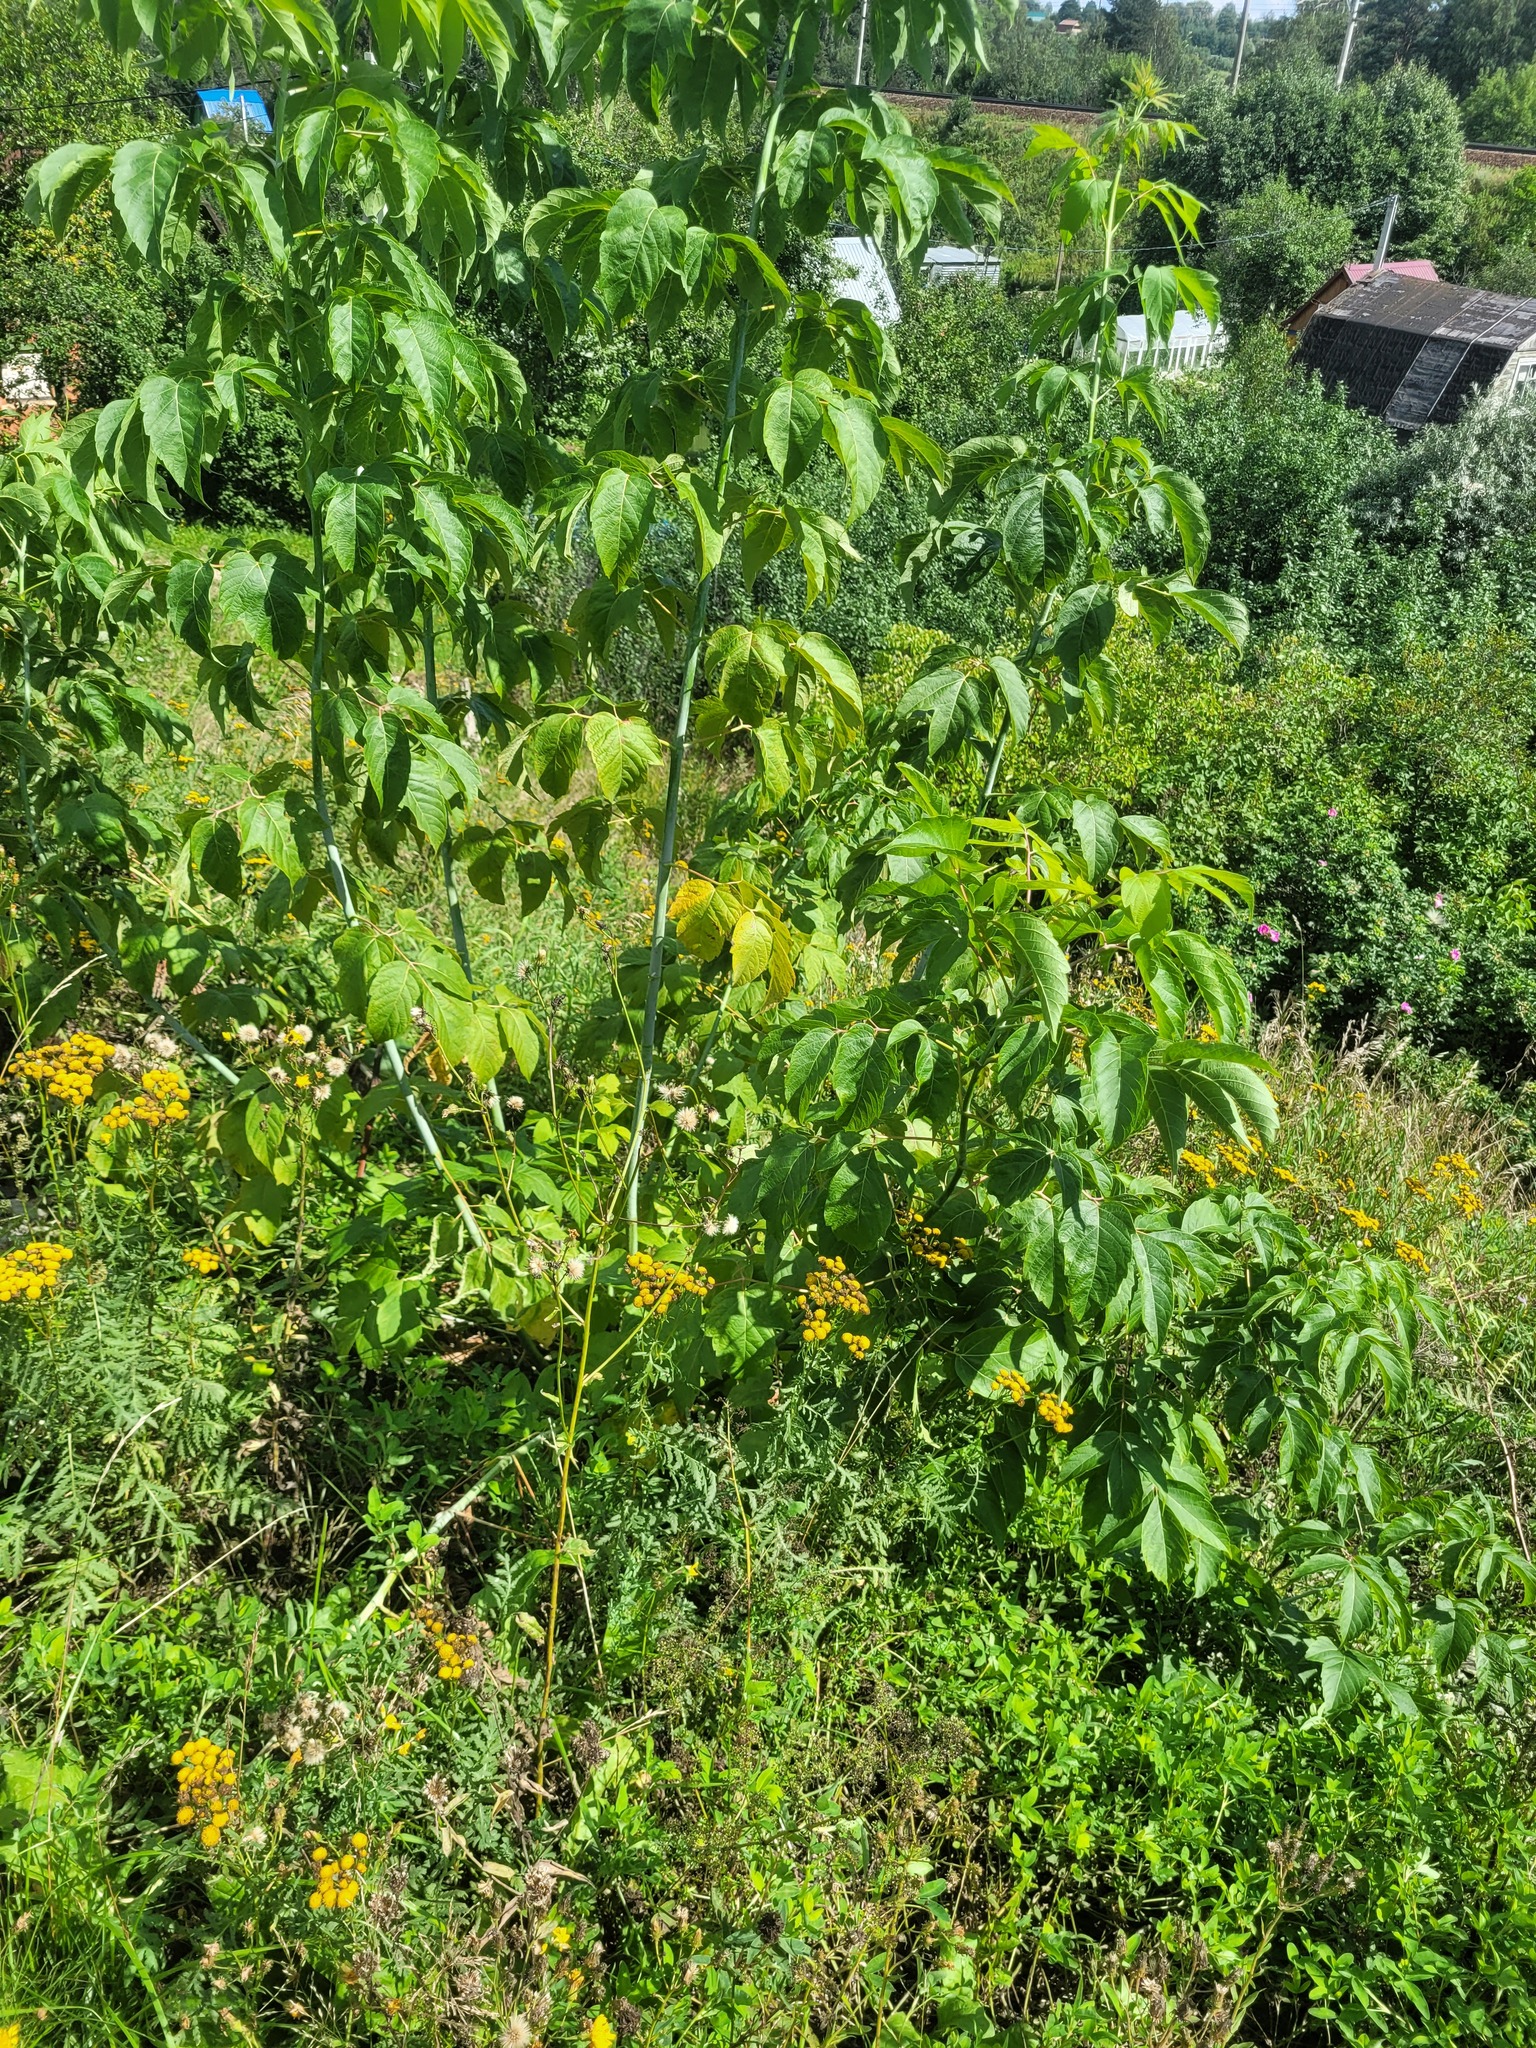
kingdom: Plantae
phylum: Tracheophyta
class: Magnoliopsida
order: Sapindales
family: Sapindaceae
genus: Acer
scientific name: Acer negundo
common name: Ashleaf maple
